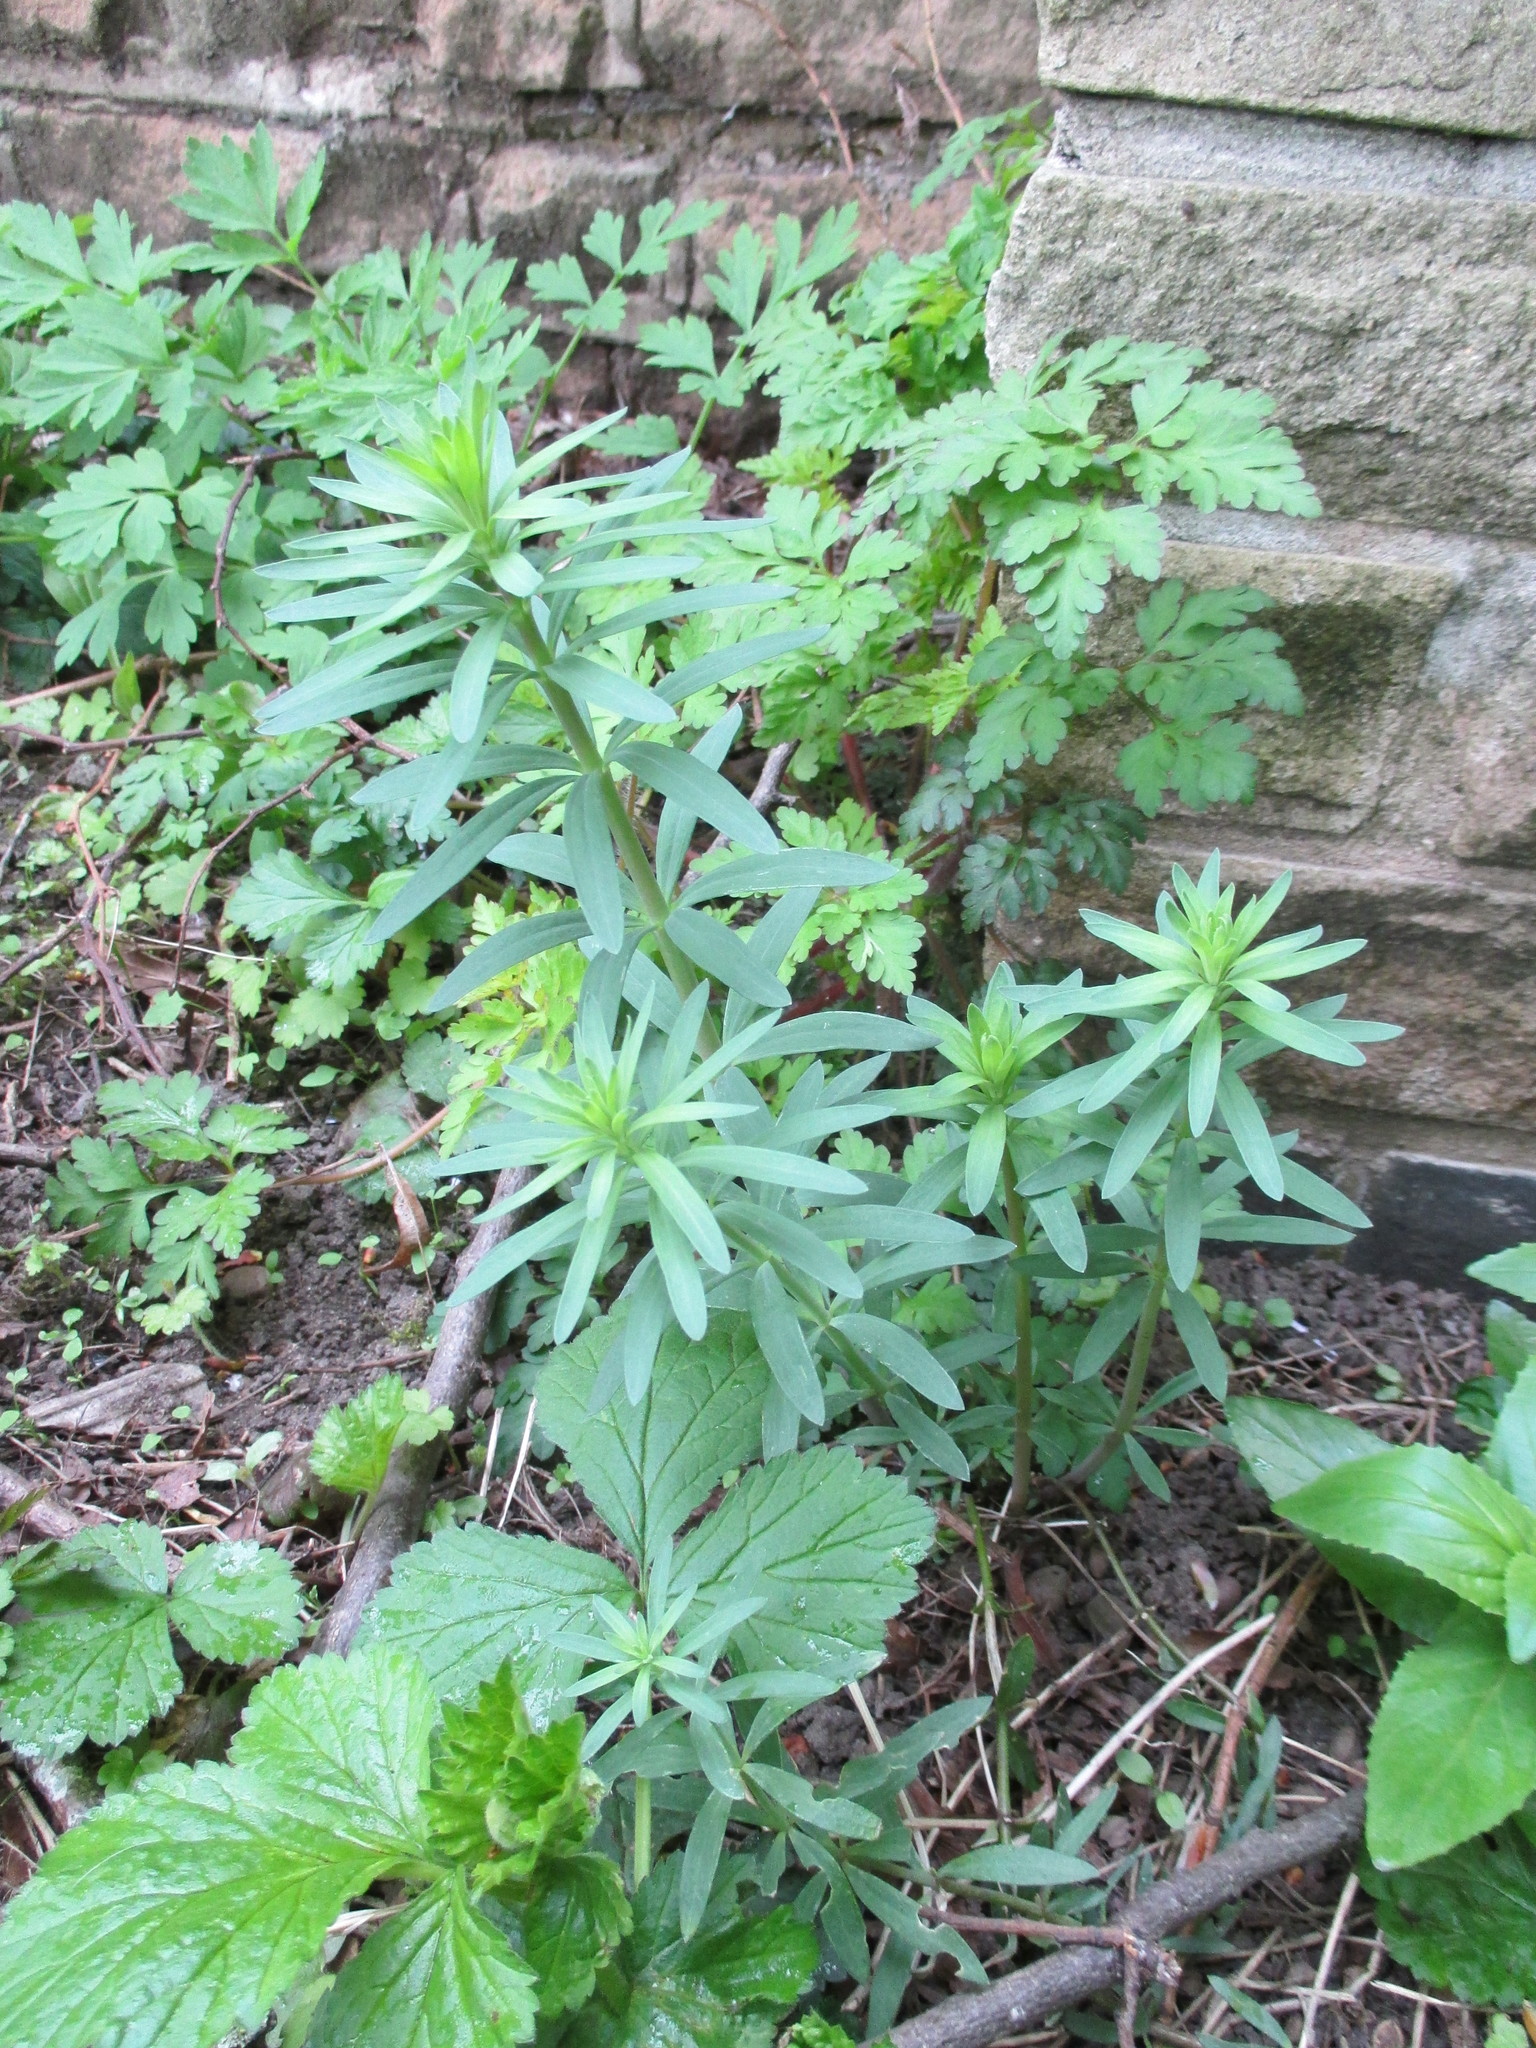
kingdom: Plantae
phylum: Tracheophyta
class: Magnoliopsida
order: Lamiales
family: Plantaginaceae
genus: Linaria
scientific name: Linaria purpurea
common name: Purple toadflax
